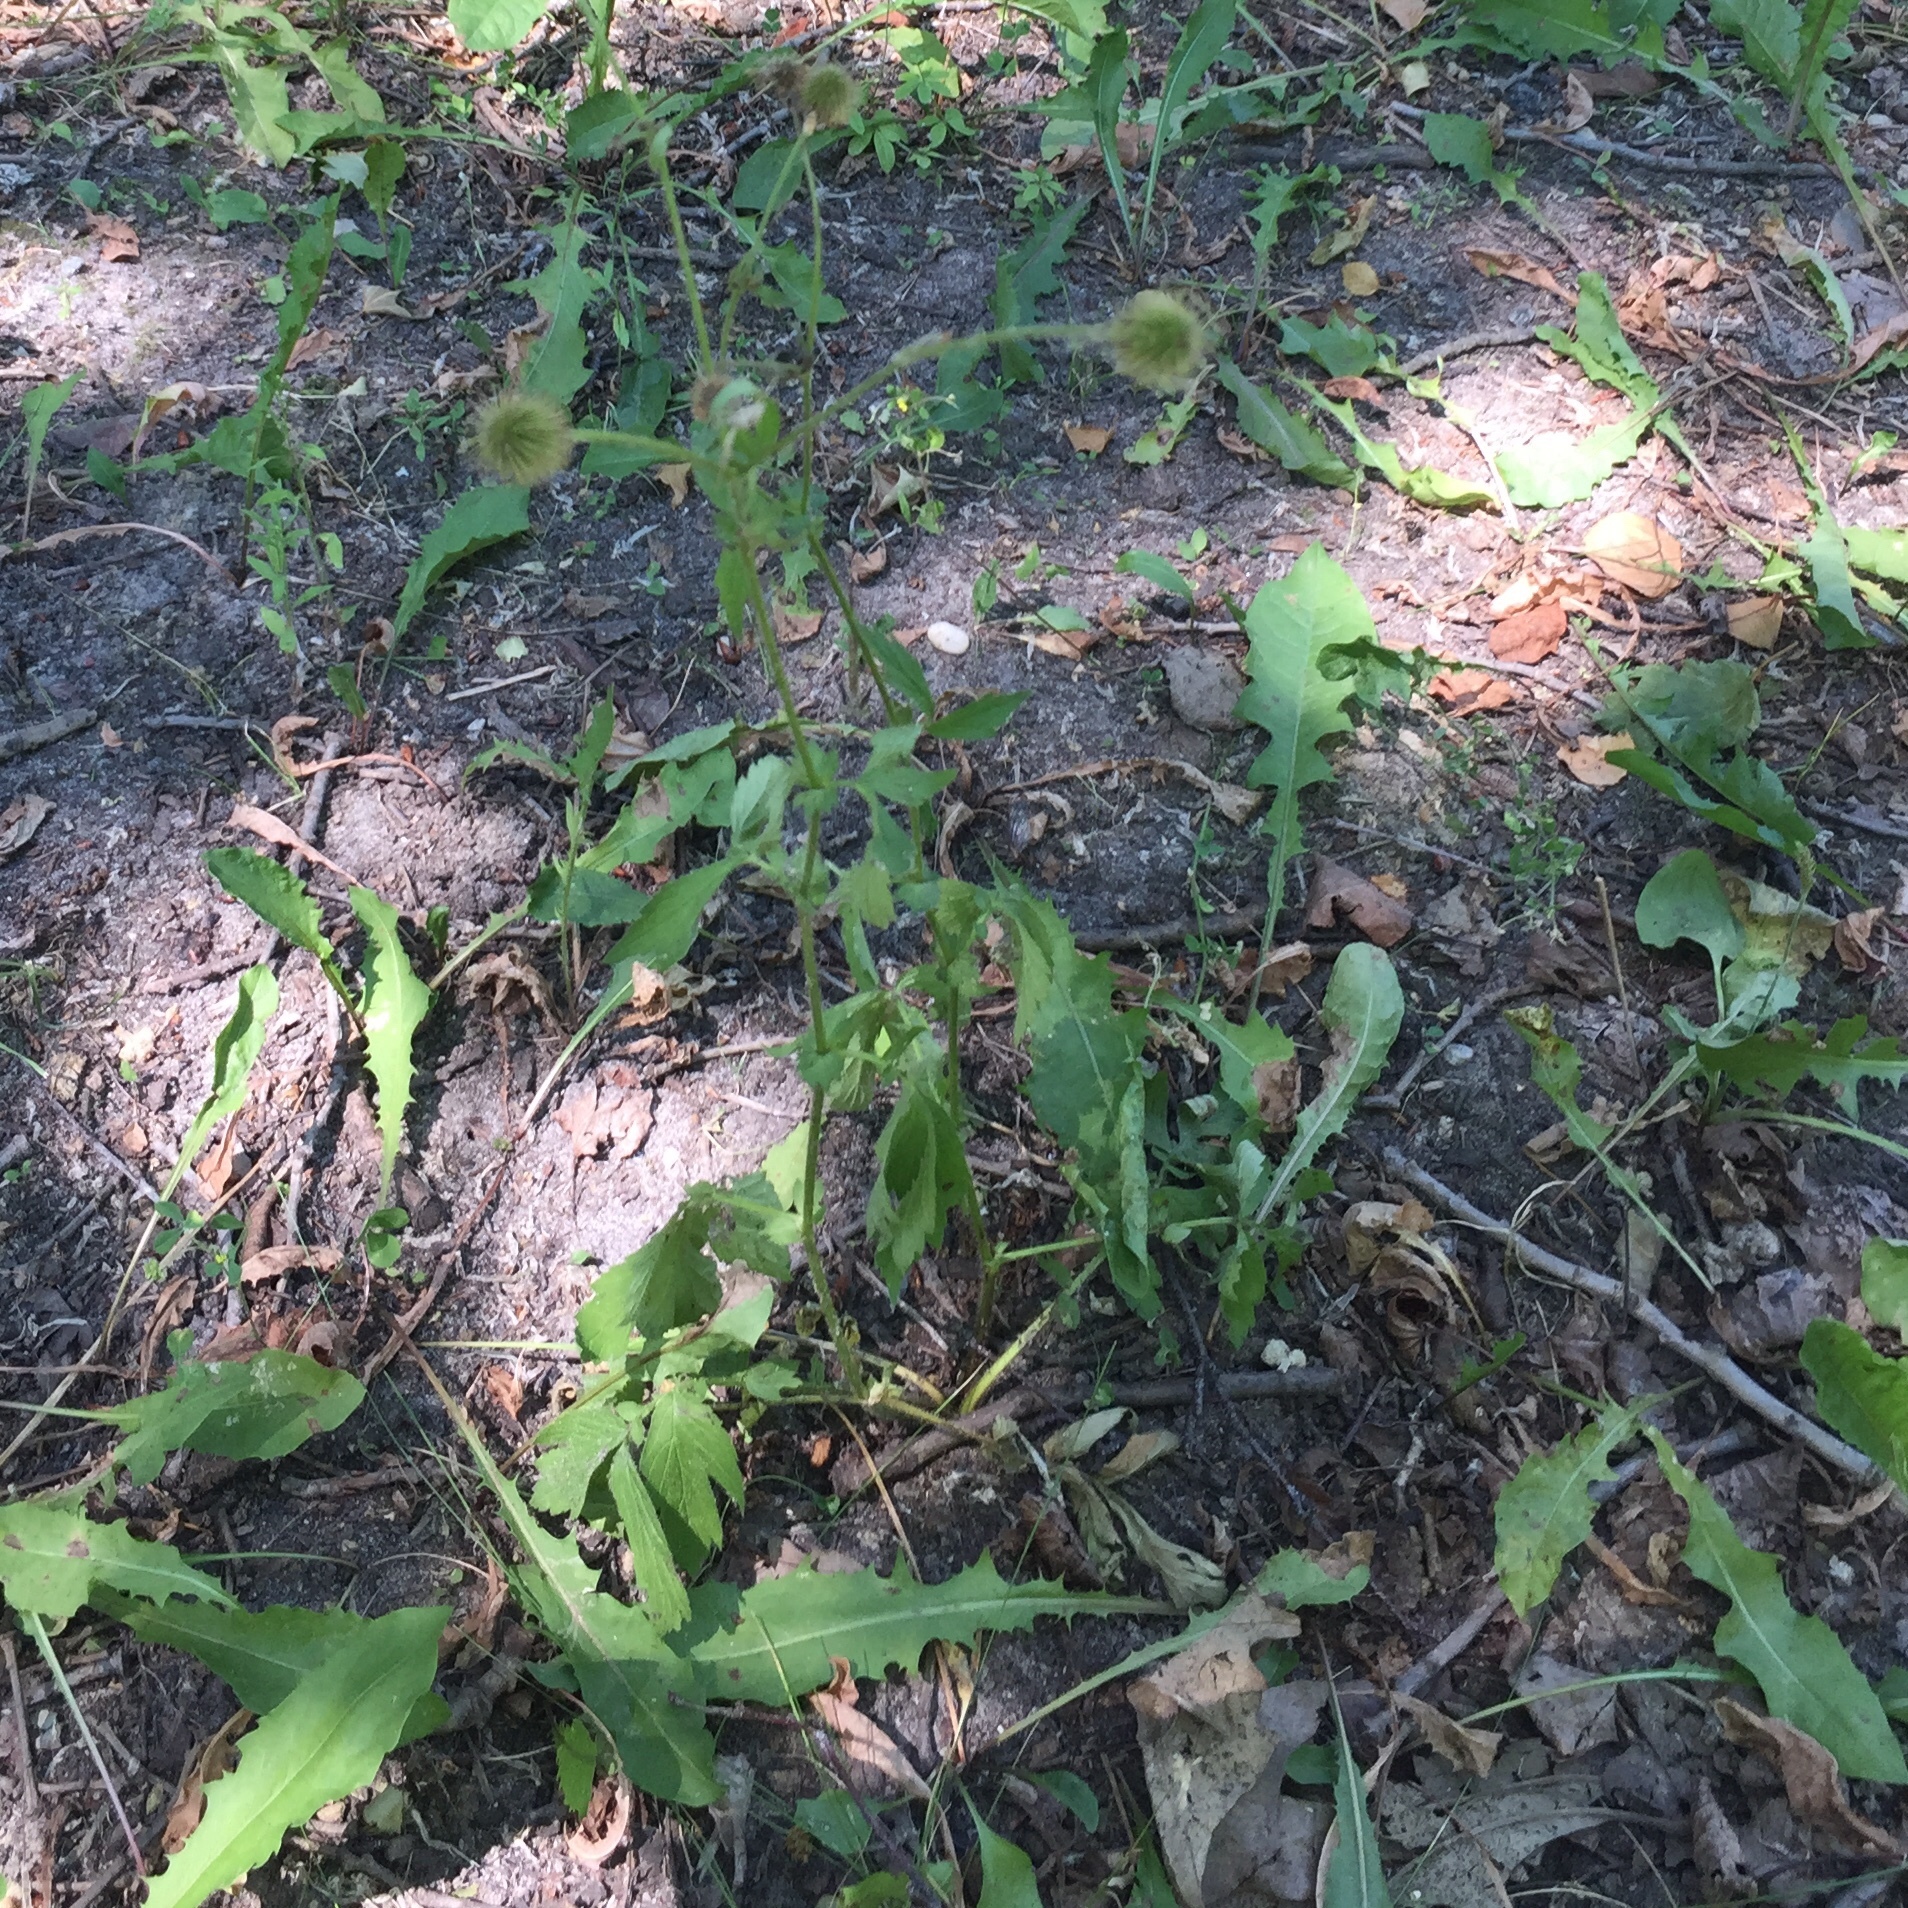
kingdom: Plantae
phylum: Tracheophyta
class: Magnoliopsida
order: Rosales
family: Rosaceae
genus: Geum
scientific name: Geum aleppicum
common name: Yellow avens
